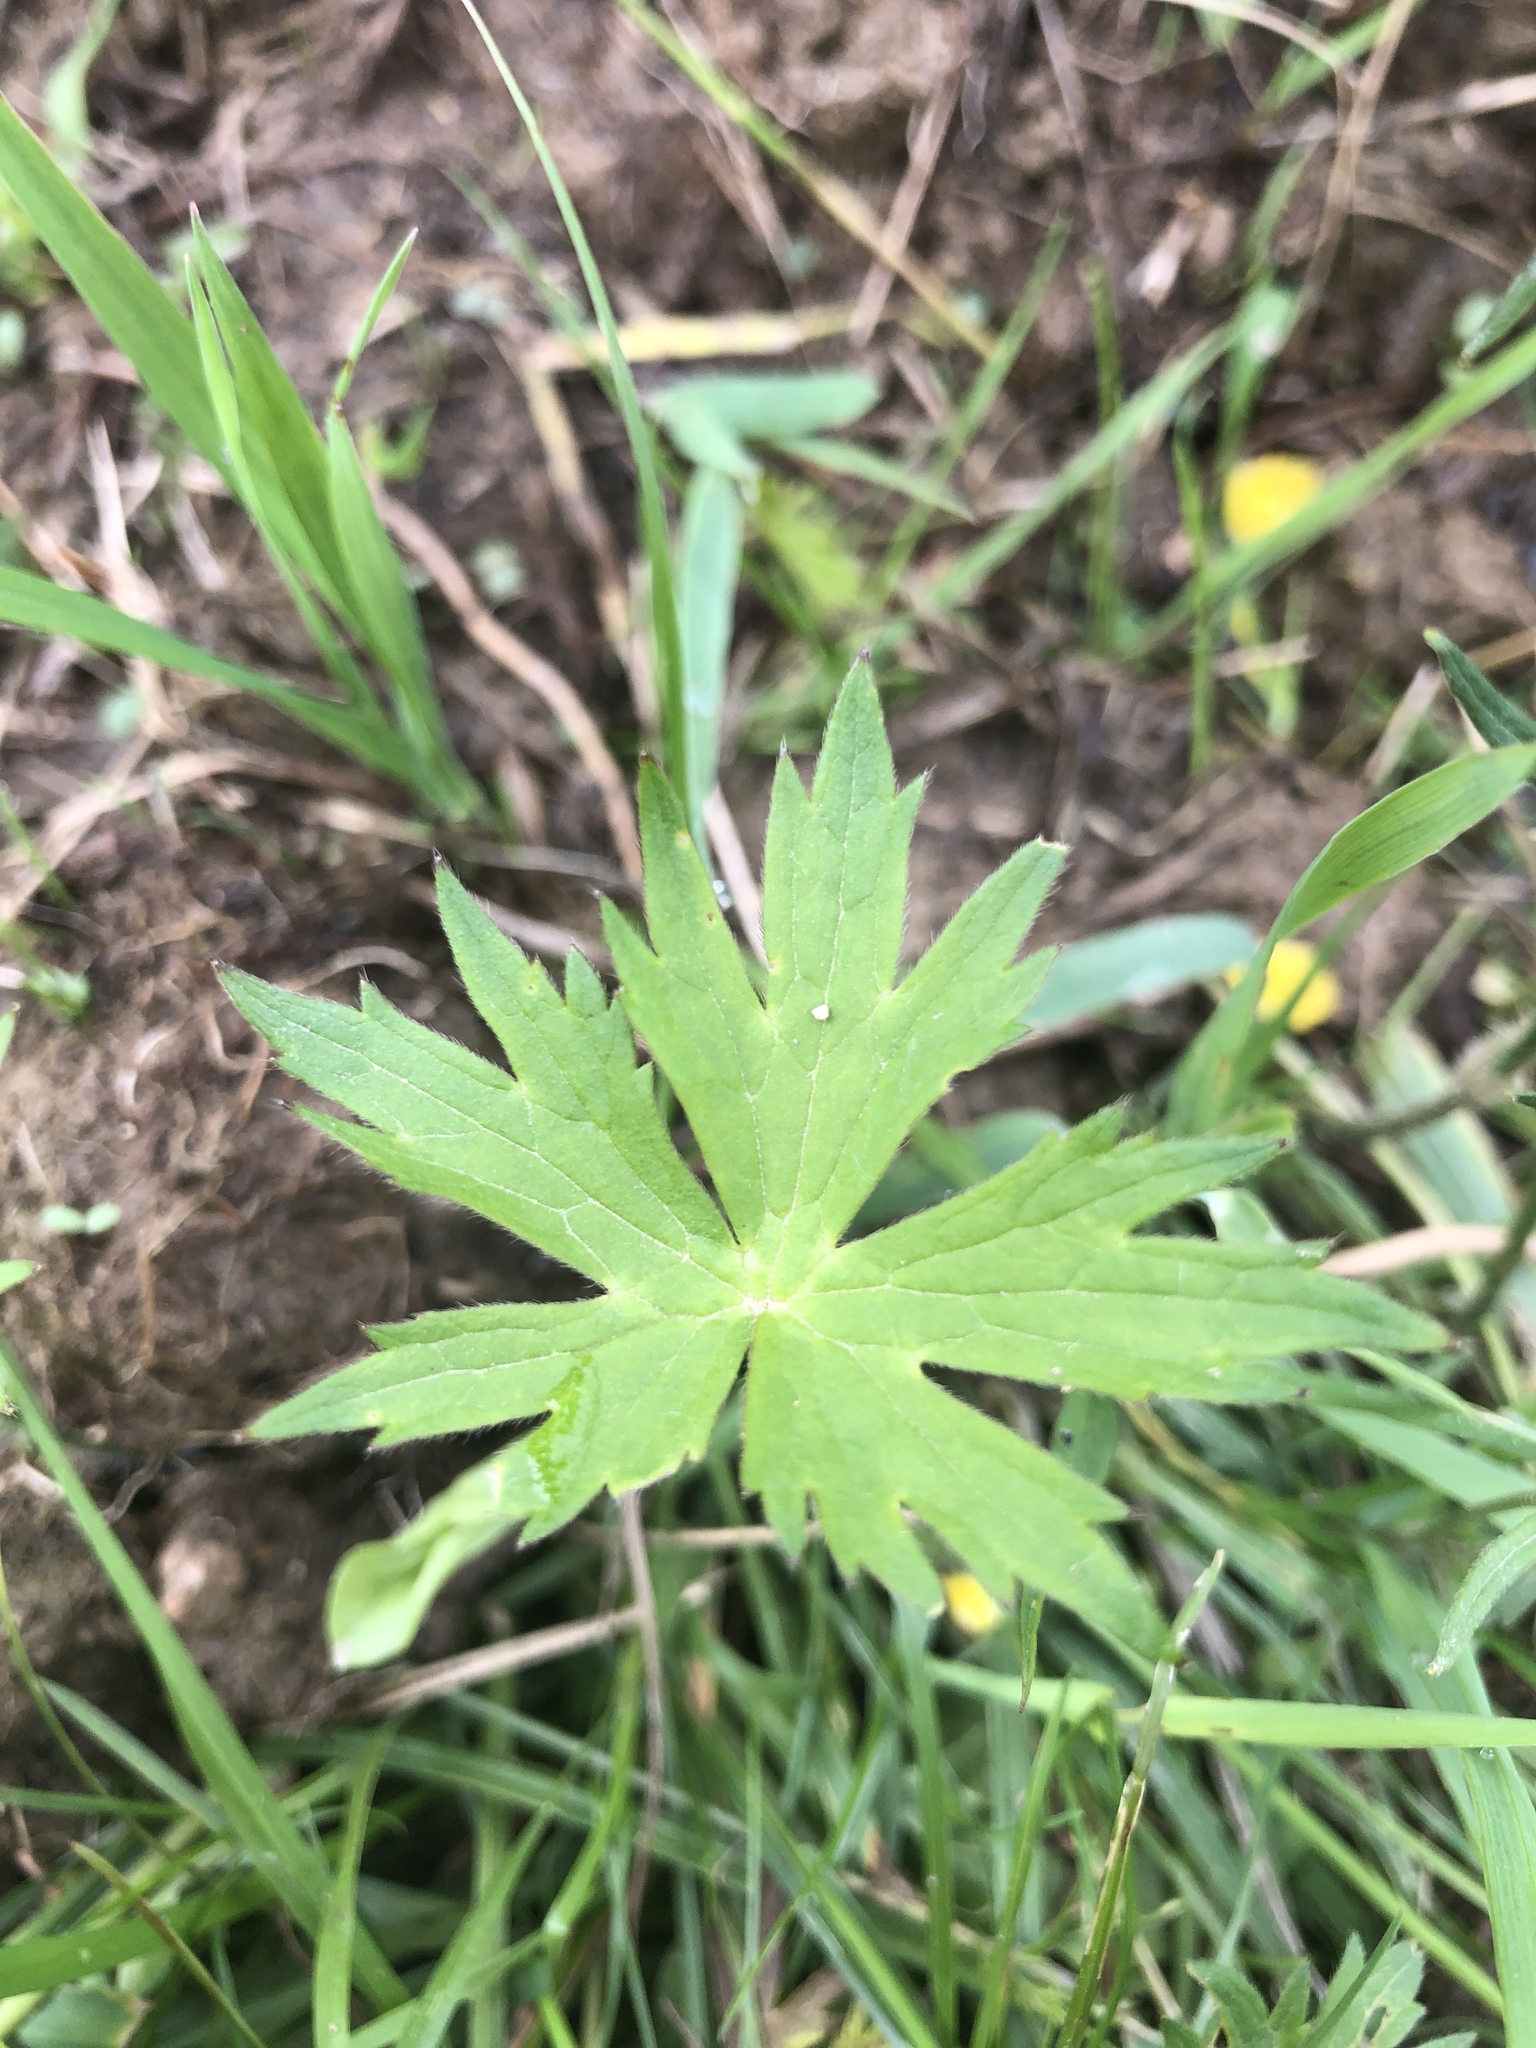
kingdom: Plantae
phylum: Tracheophyta
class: Magnoliopsida
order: Ranunculales
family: Ranunculaceae
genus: Ranunculus
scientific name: Ranunculus acris
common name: Meadow buttercup
